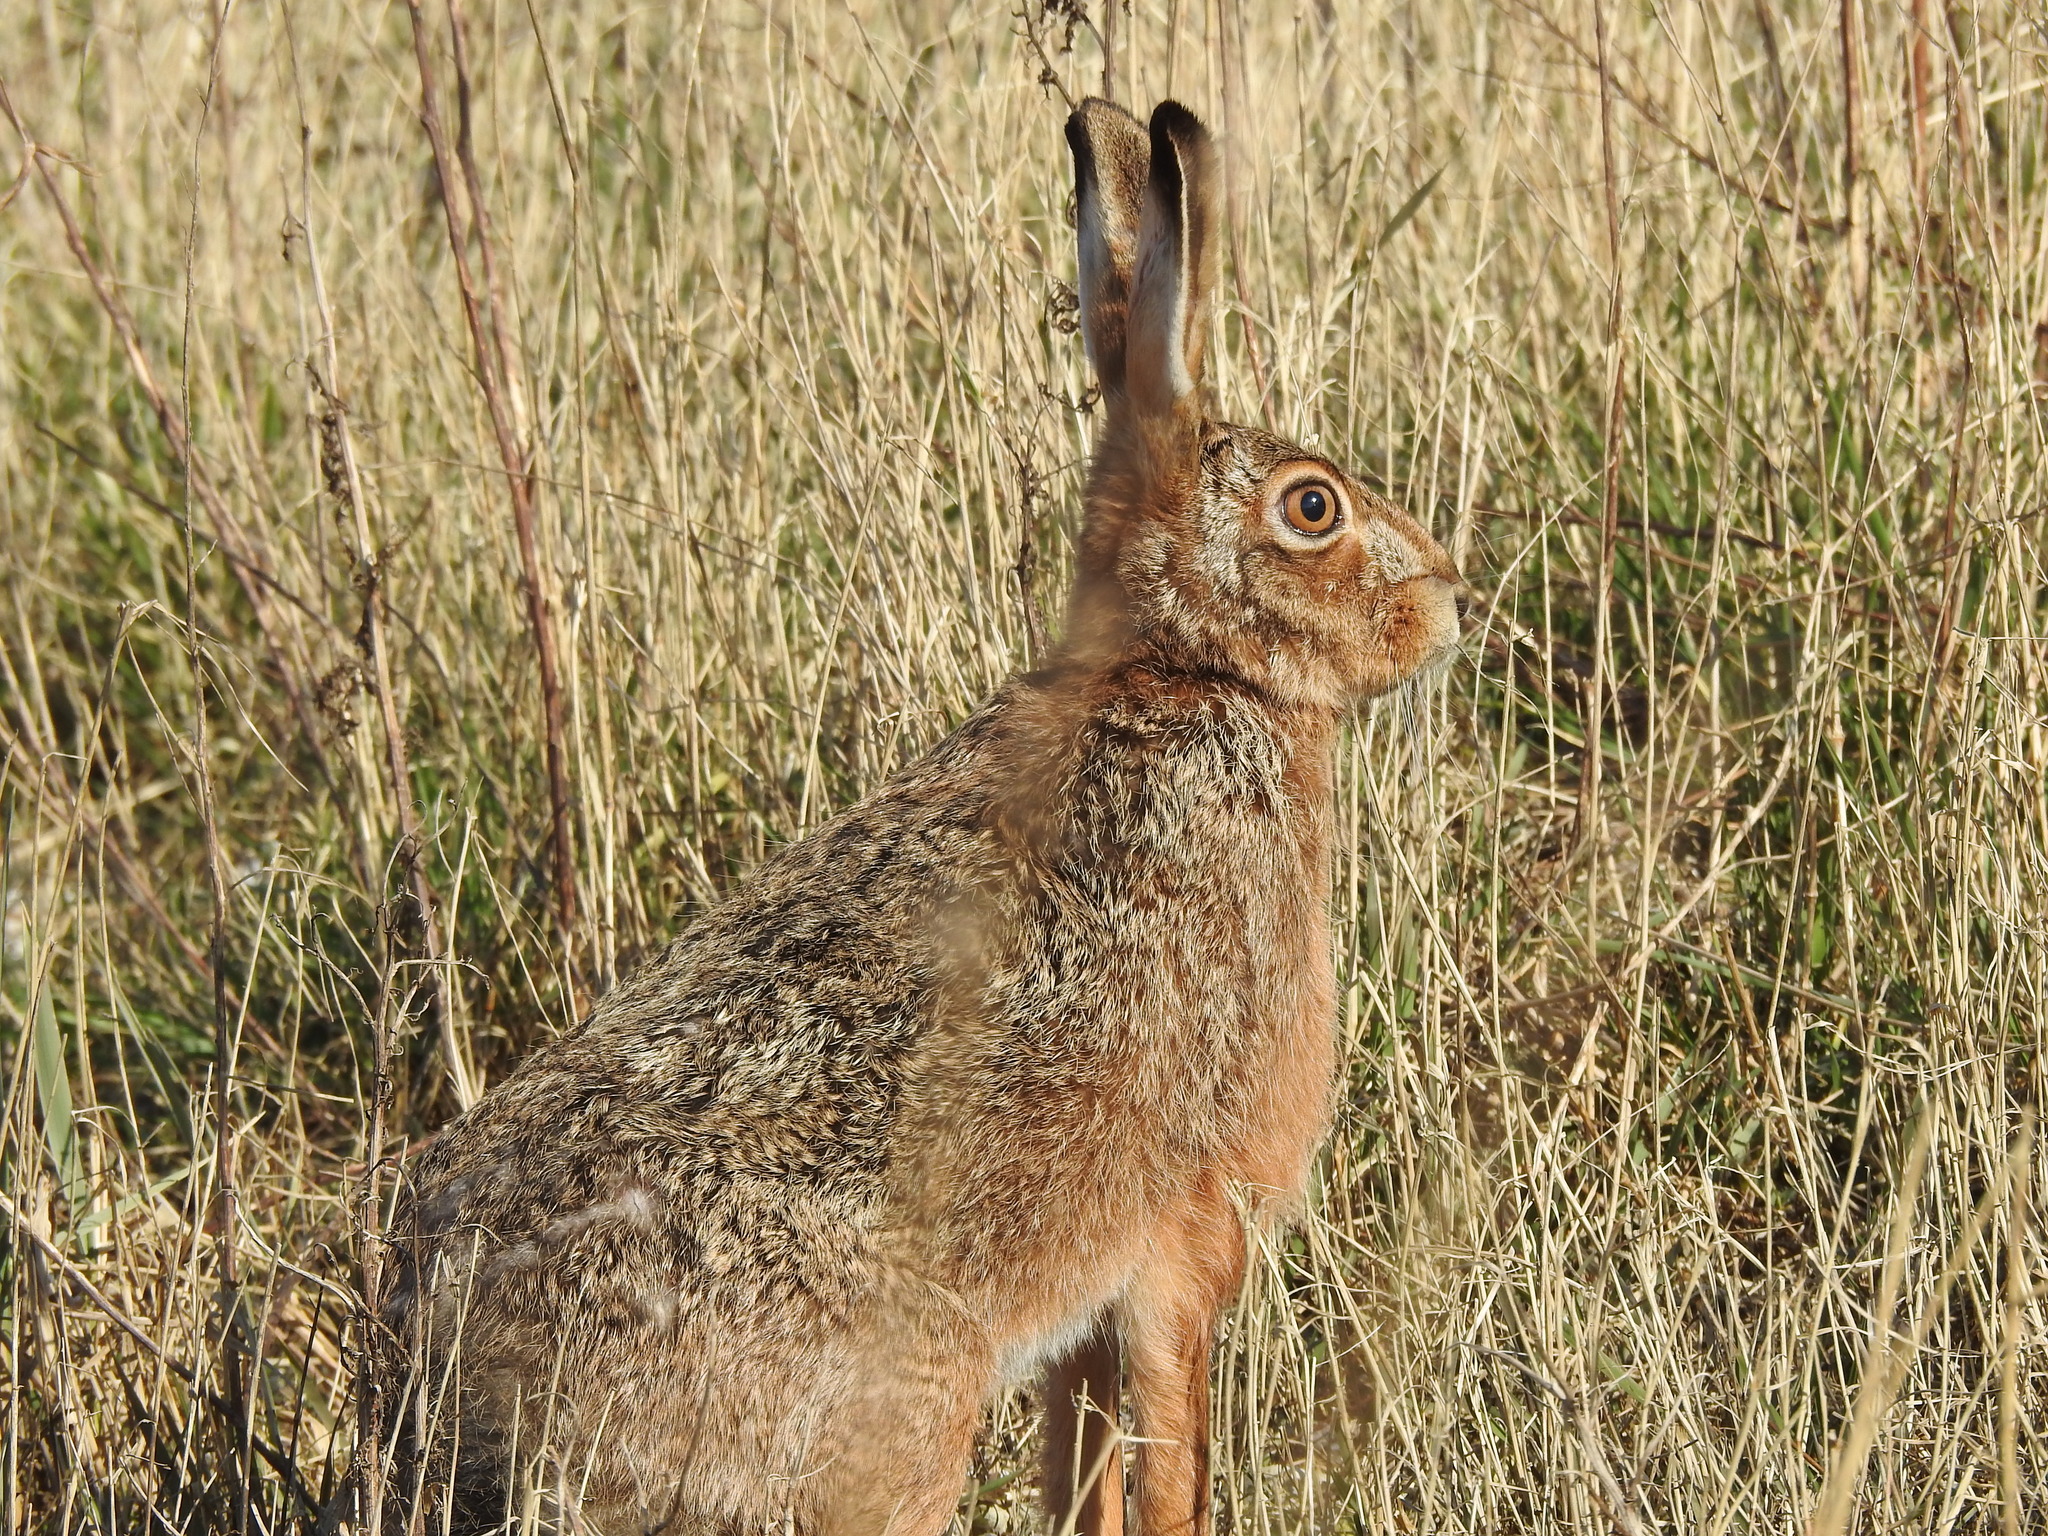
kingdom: Animalia
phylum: Chordata
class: Mammalia
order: Lagomorpha
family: Leporidae
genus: Lepus
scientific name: Lepus europaeus
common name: European hare
